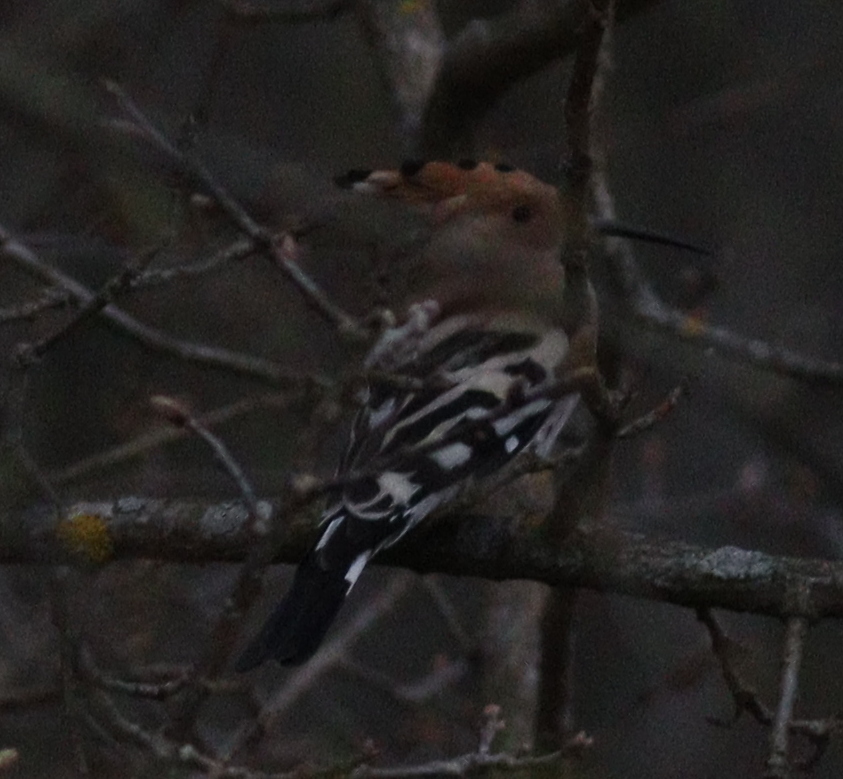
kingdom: Animalia
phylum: Chordata
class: Aves
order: Bucerotiformes
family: Upupidae
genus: Upupa
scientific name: Upupa epops
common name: Eurasian hoopoe
